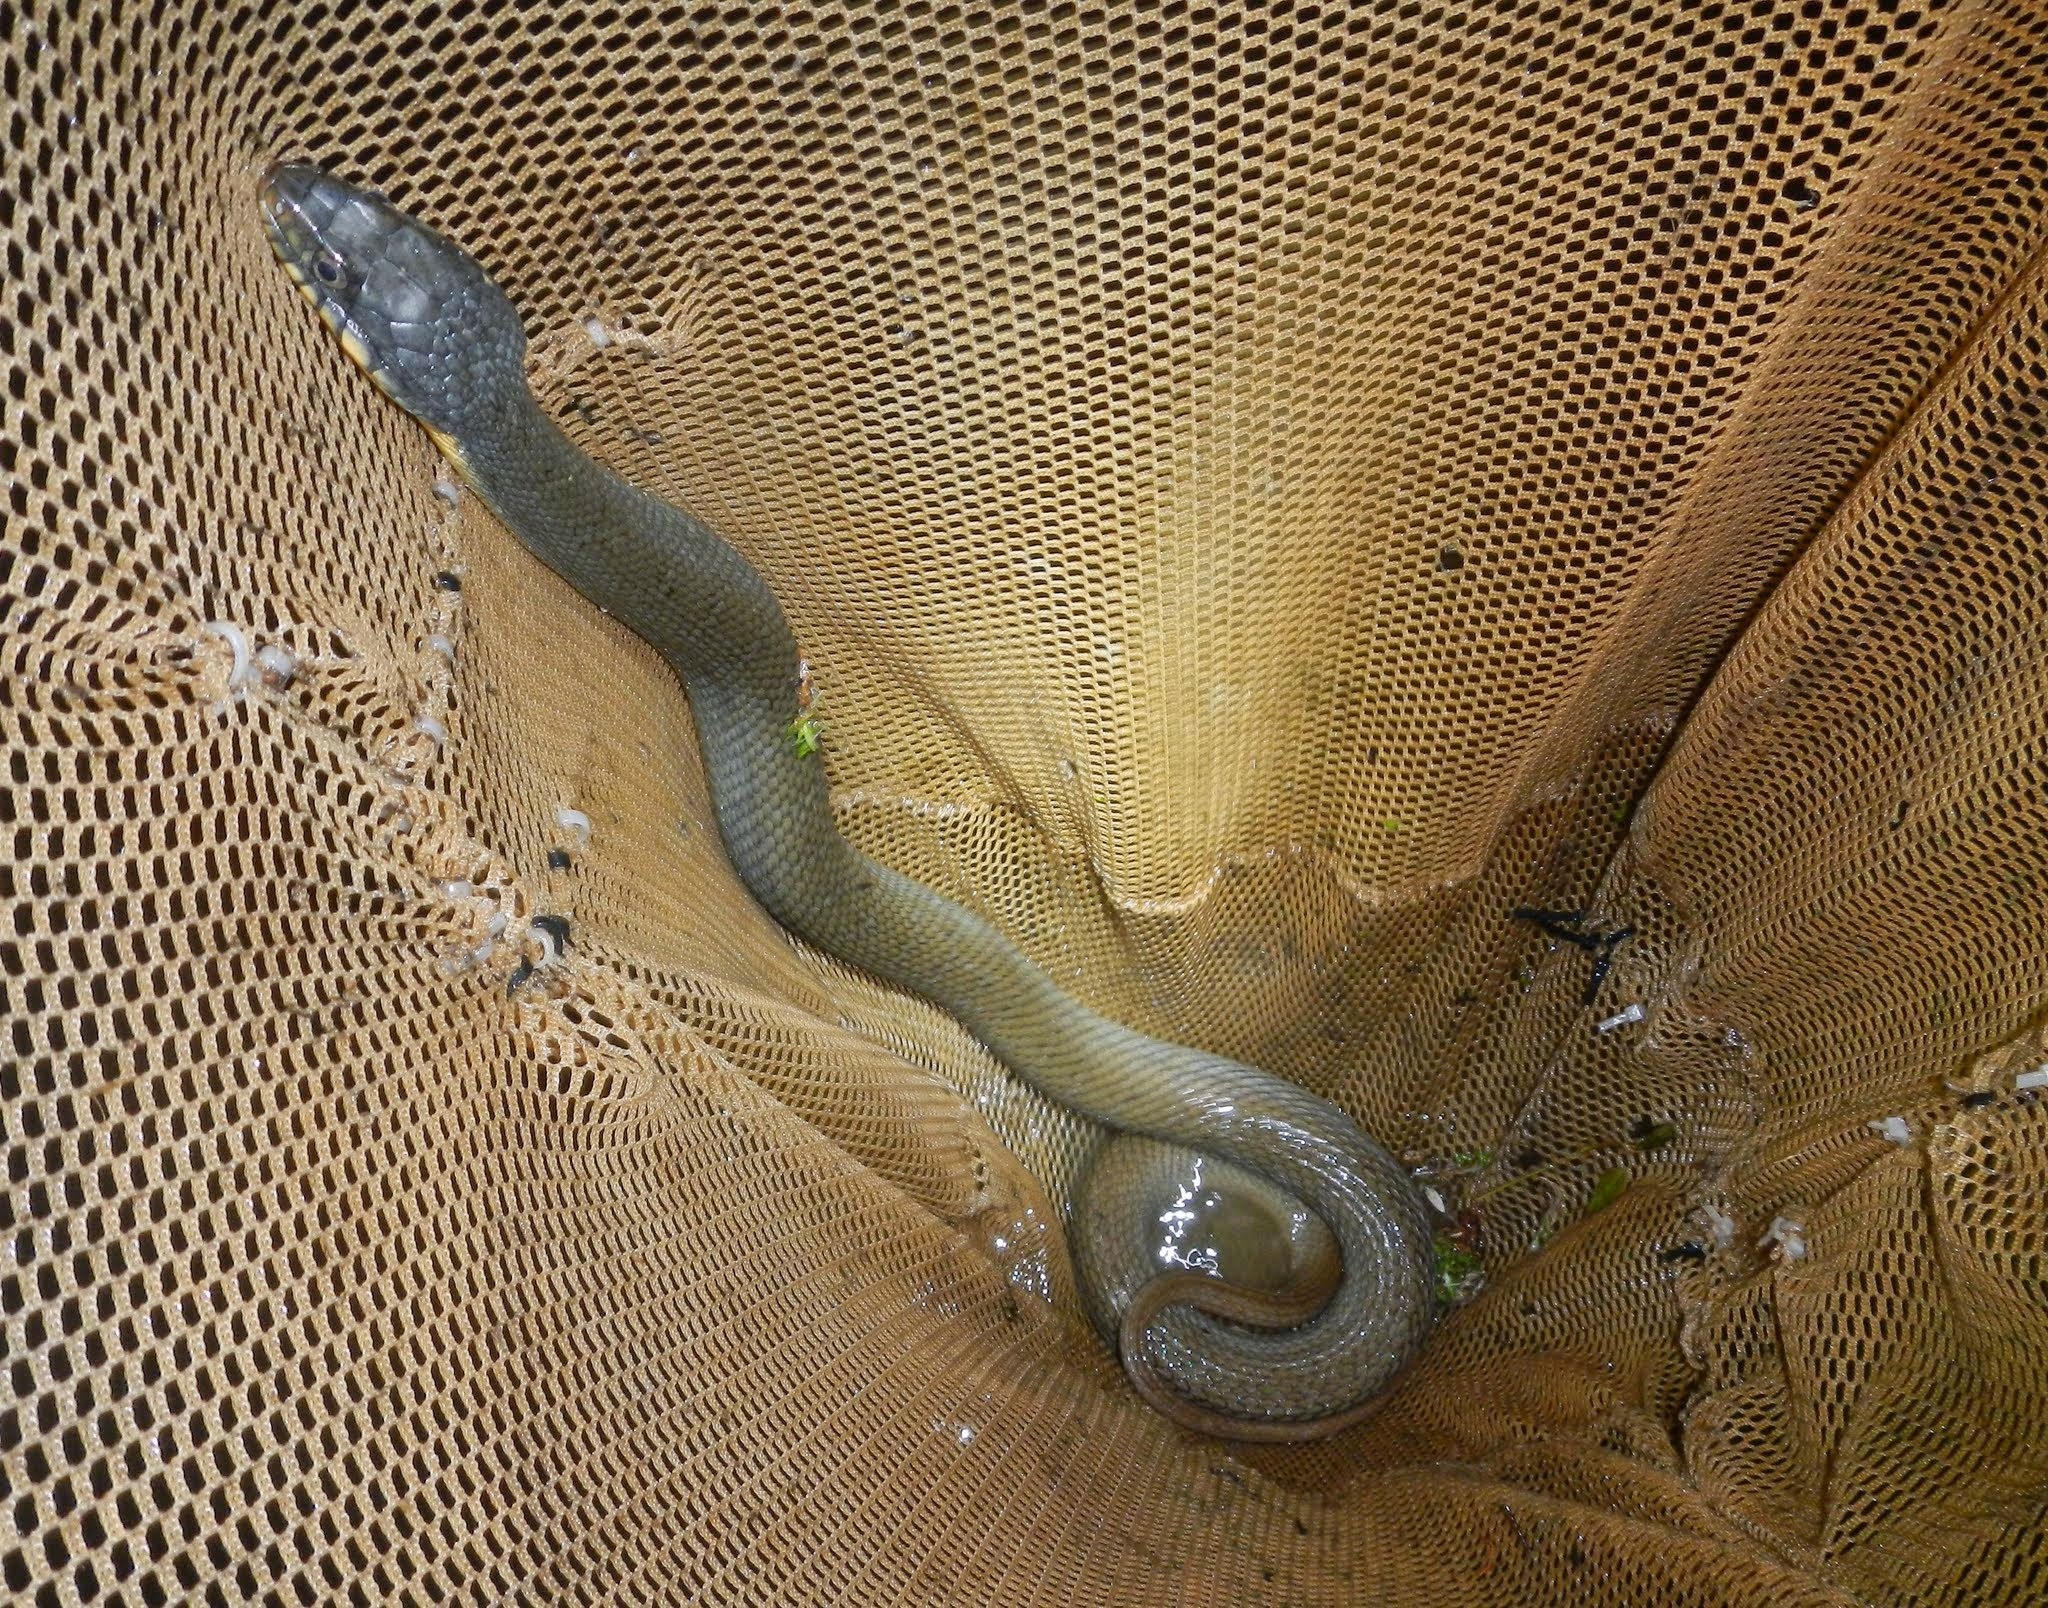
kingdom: Animalia
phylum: Chordata
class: Squamata
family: Colubridae
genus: Nerodia
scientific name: Nerodia erythrogaster
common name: Plainbelly water snake
